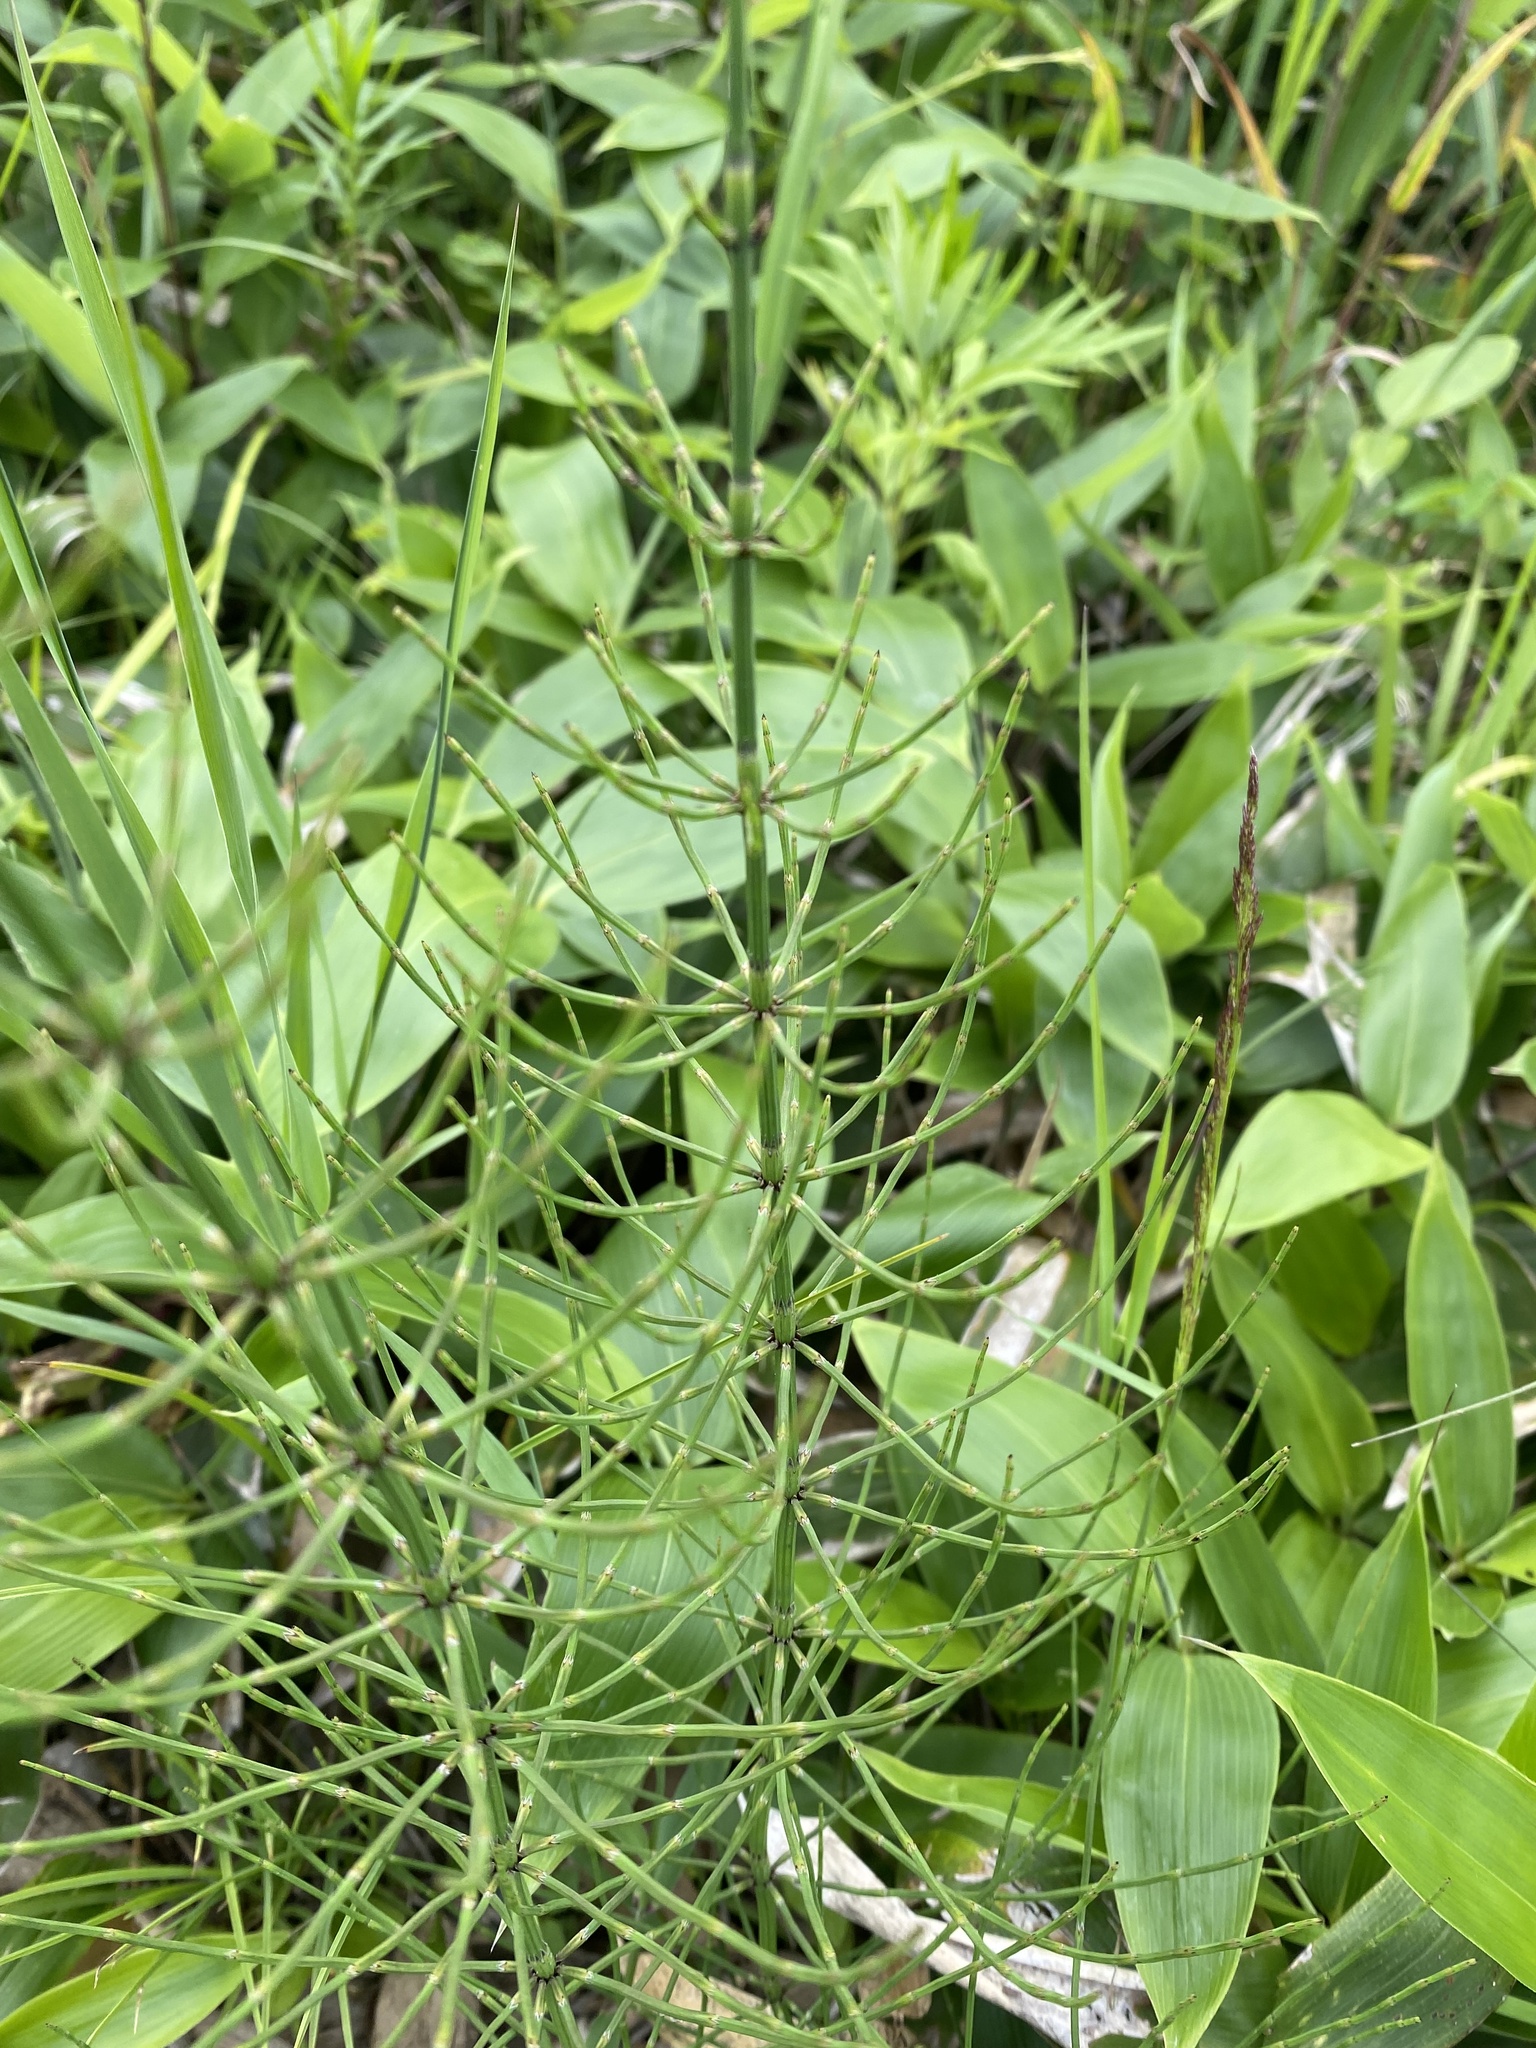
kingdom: Plantae
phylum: Tracheophyta
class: Polypodiopsida
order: Equisetales
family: Equisetaceae
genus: Equisetum
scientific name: Equisetum palustre
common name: Marsh horsetail
